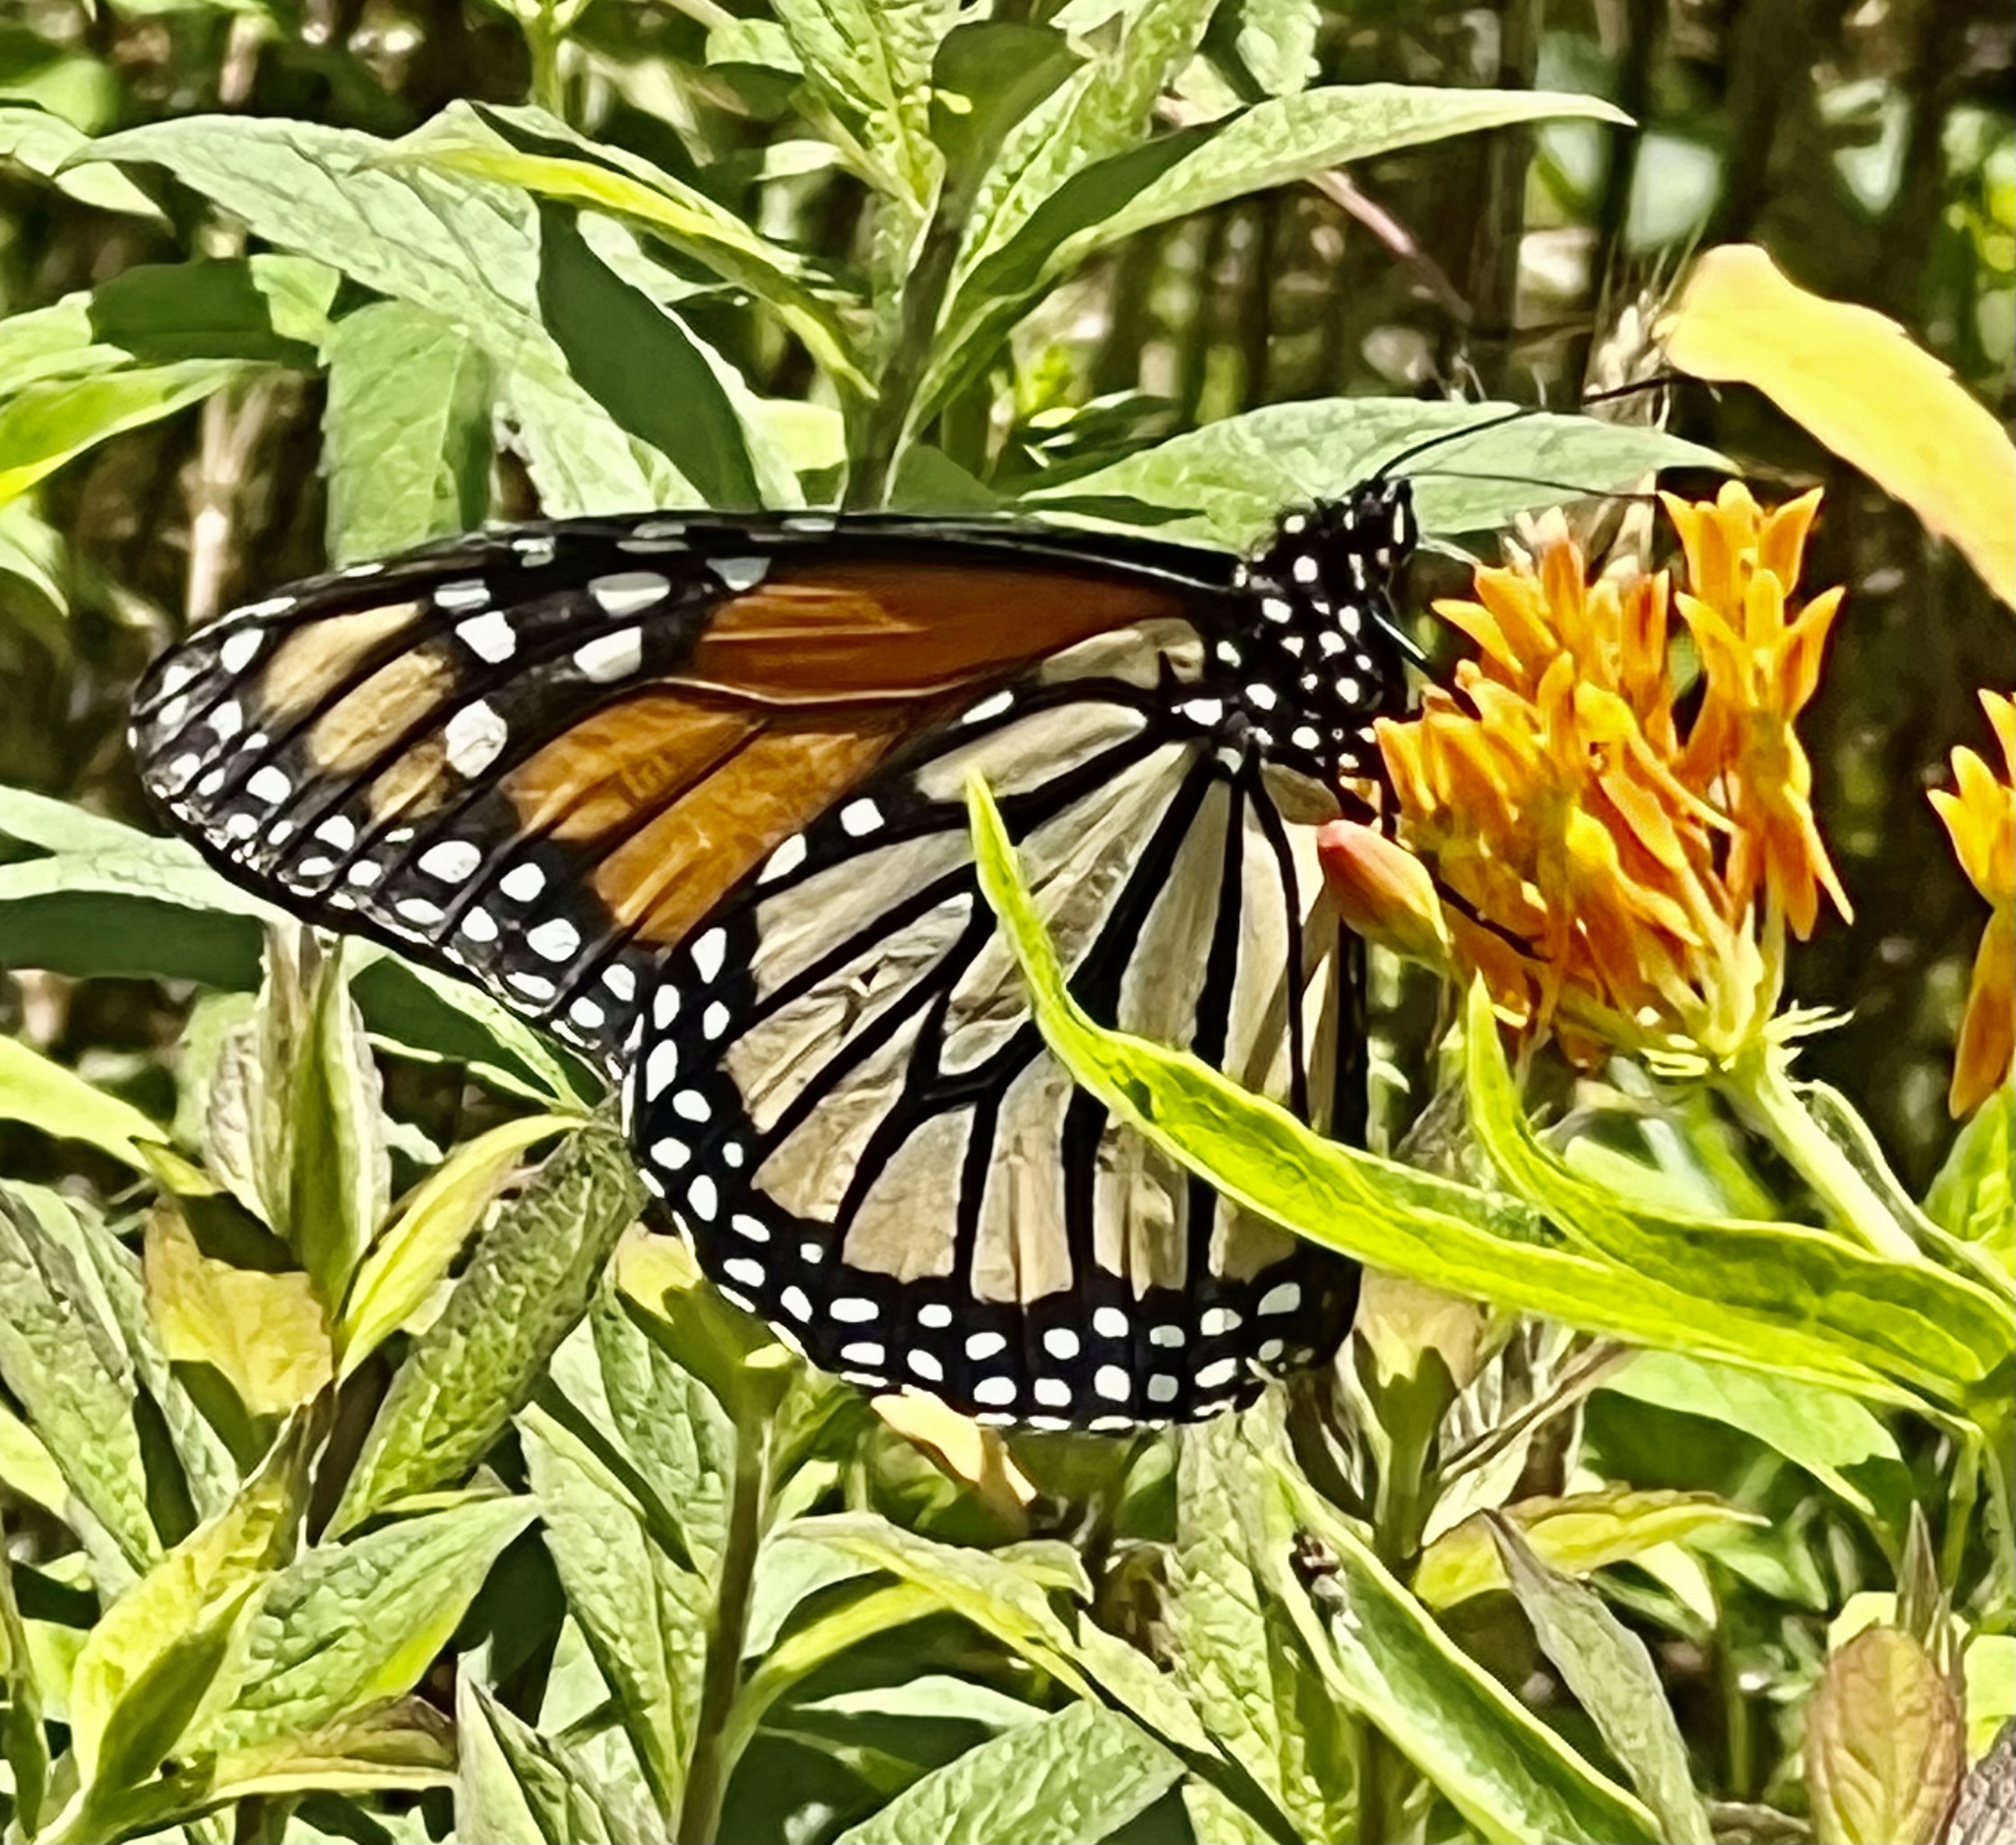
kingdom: Animalia
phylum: Arthropoda
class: Insecta
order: Lepidoptera
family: Nymphalidae
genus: Danaus
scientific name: Danaus plexippus
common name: Monarch
